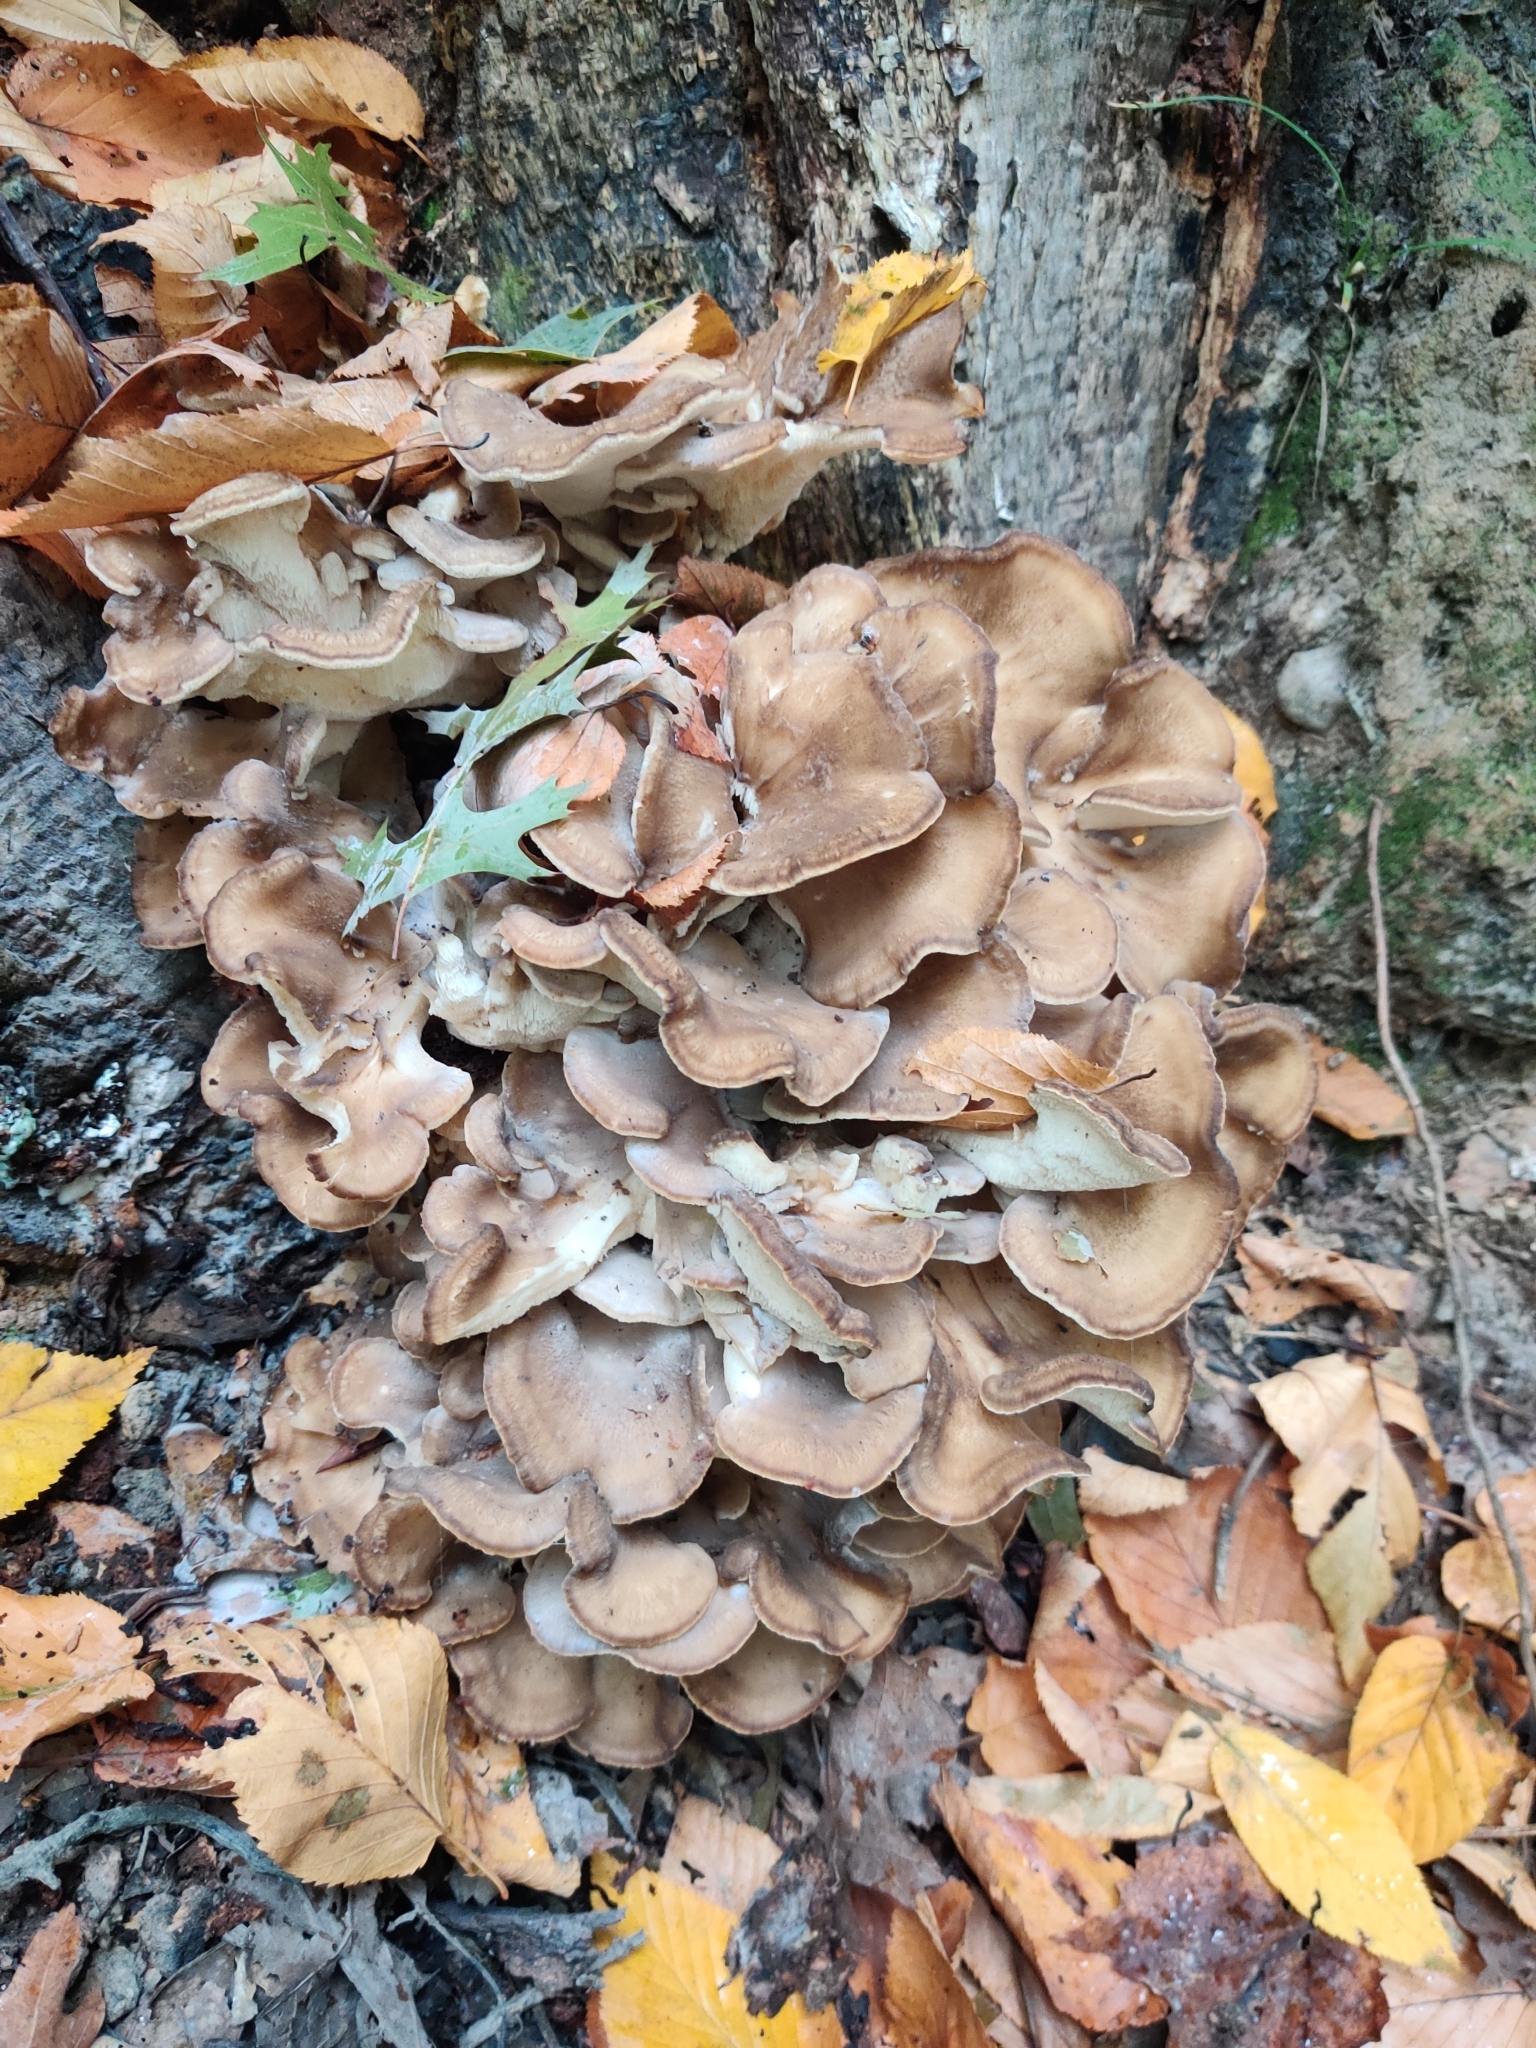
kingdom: Fungi
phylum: Basidiomycota
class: Agaricomycetes
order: Polyporales
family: Grifolaceae
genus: Grifola
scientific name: Grifola frondosa
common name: Hen of the woods
